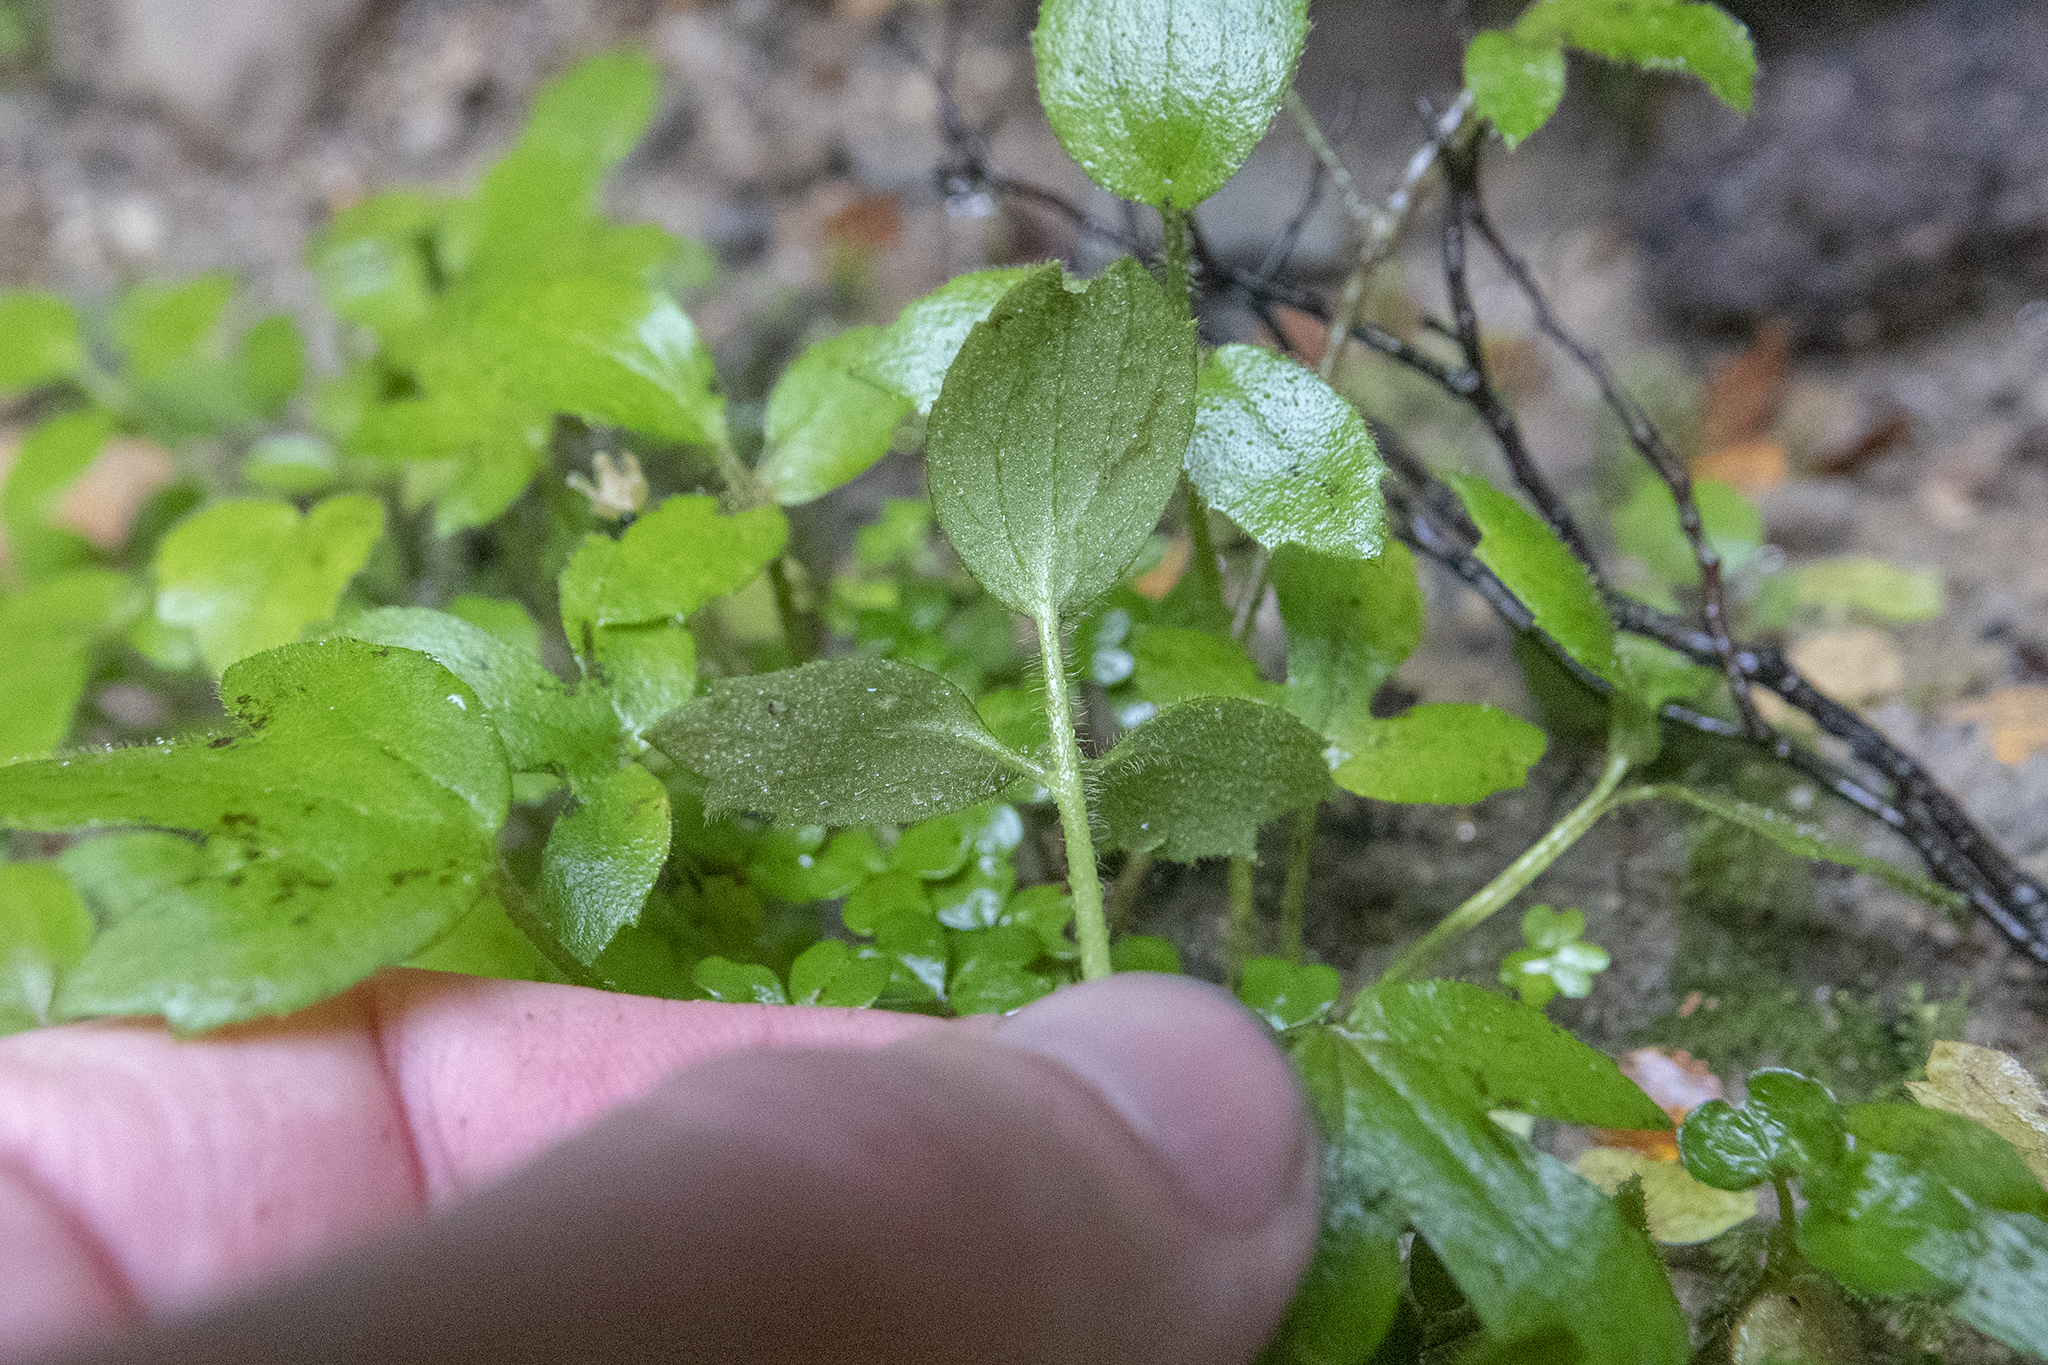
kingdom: Plantae
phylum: Tracheophyta
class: Magnoliopsida
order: Ranunculales
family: Ranunculaceae
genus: Ranunculus
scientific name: Ranunculus reflexus
